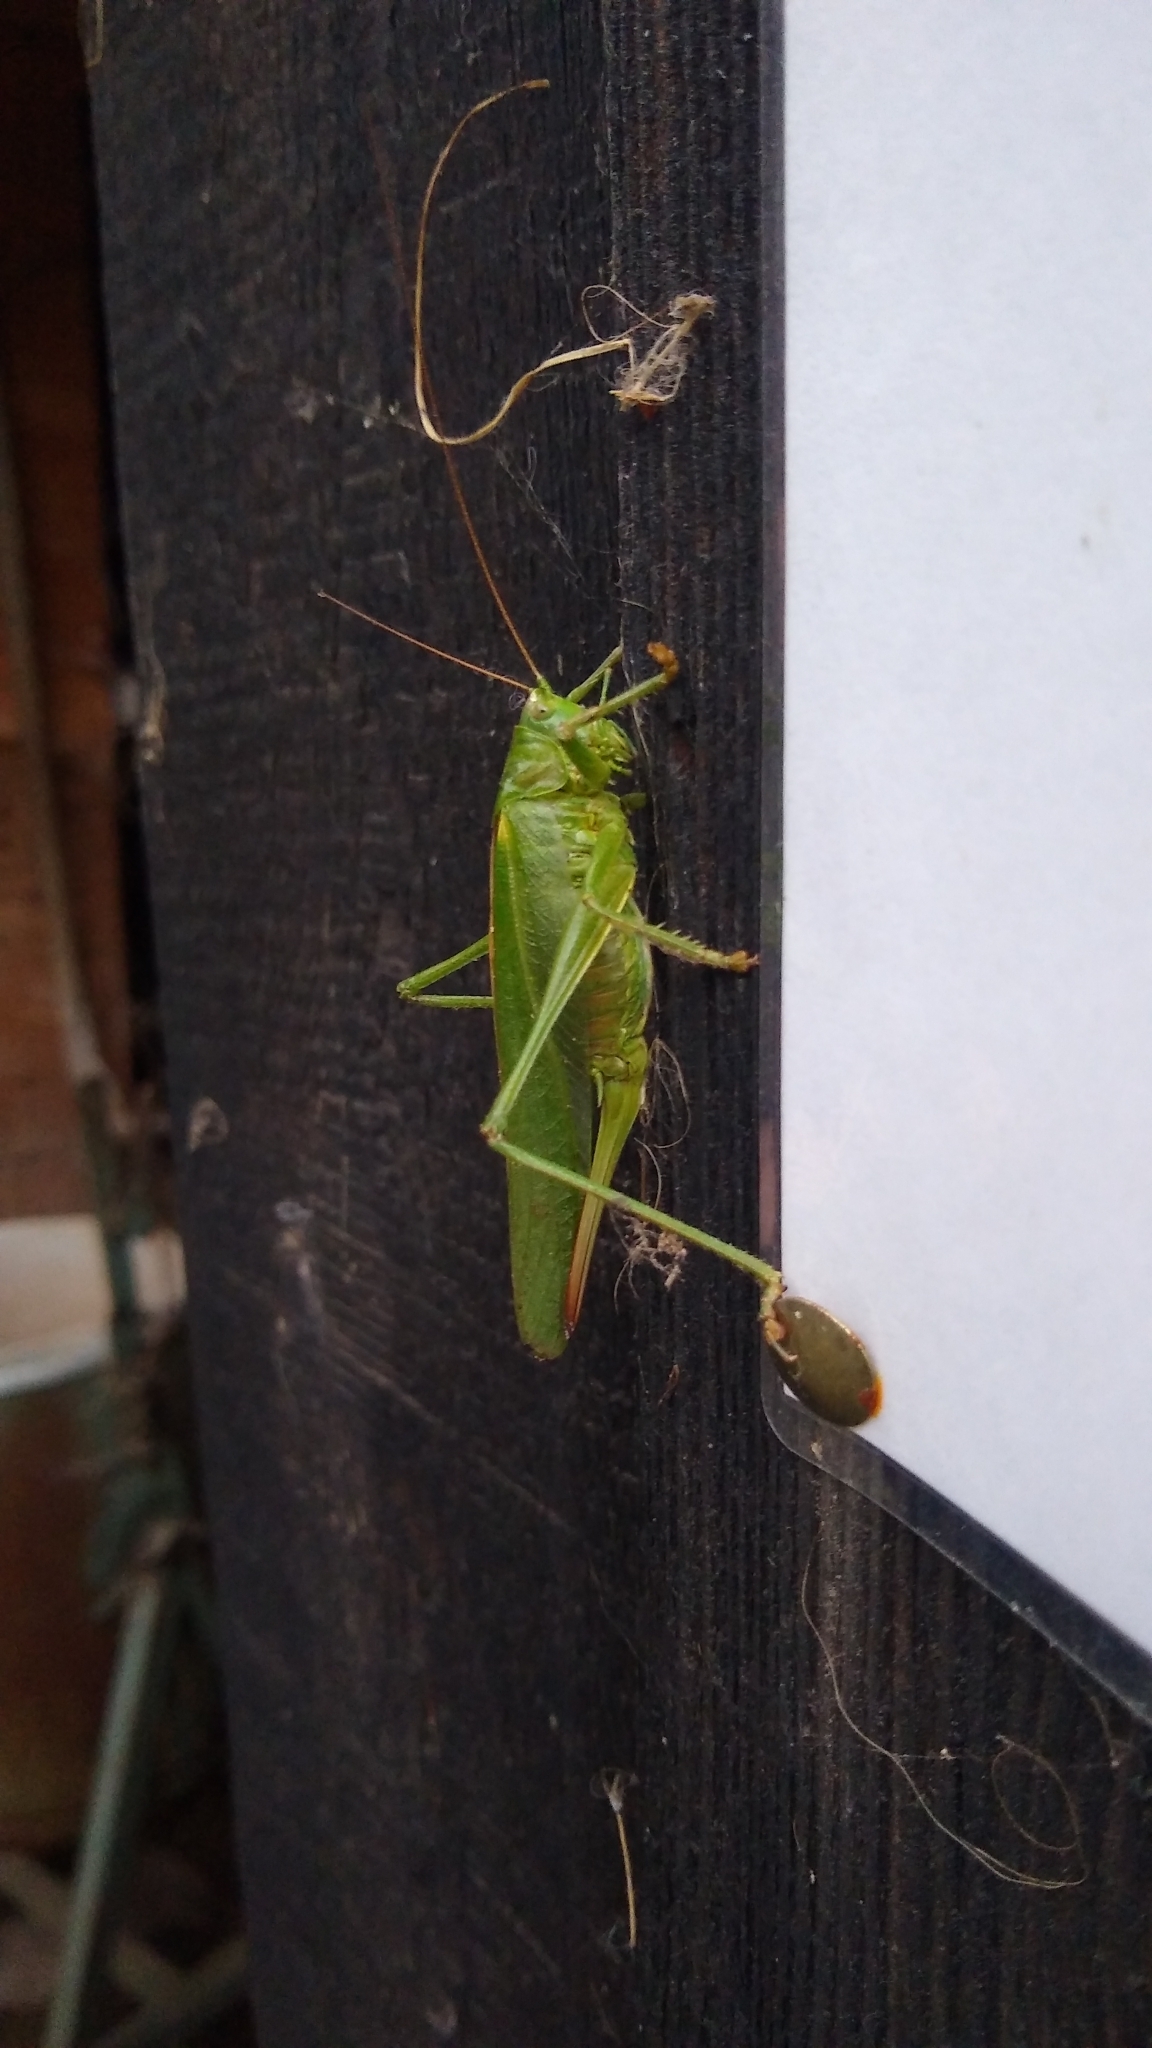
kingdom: Animalia
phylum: Arthropoda
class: Insecta
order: Orthoptera
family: Tettigoniidae
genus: Tettigonia
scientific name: Tettigonia viridissima
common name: Great green bush-cricket
